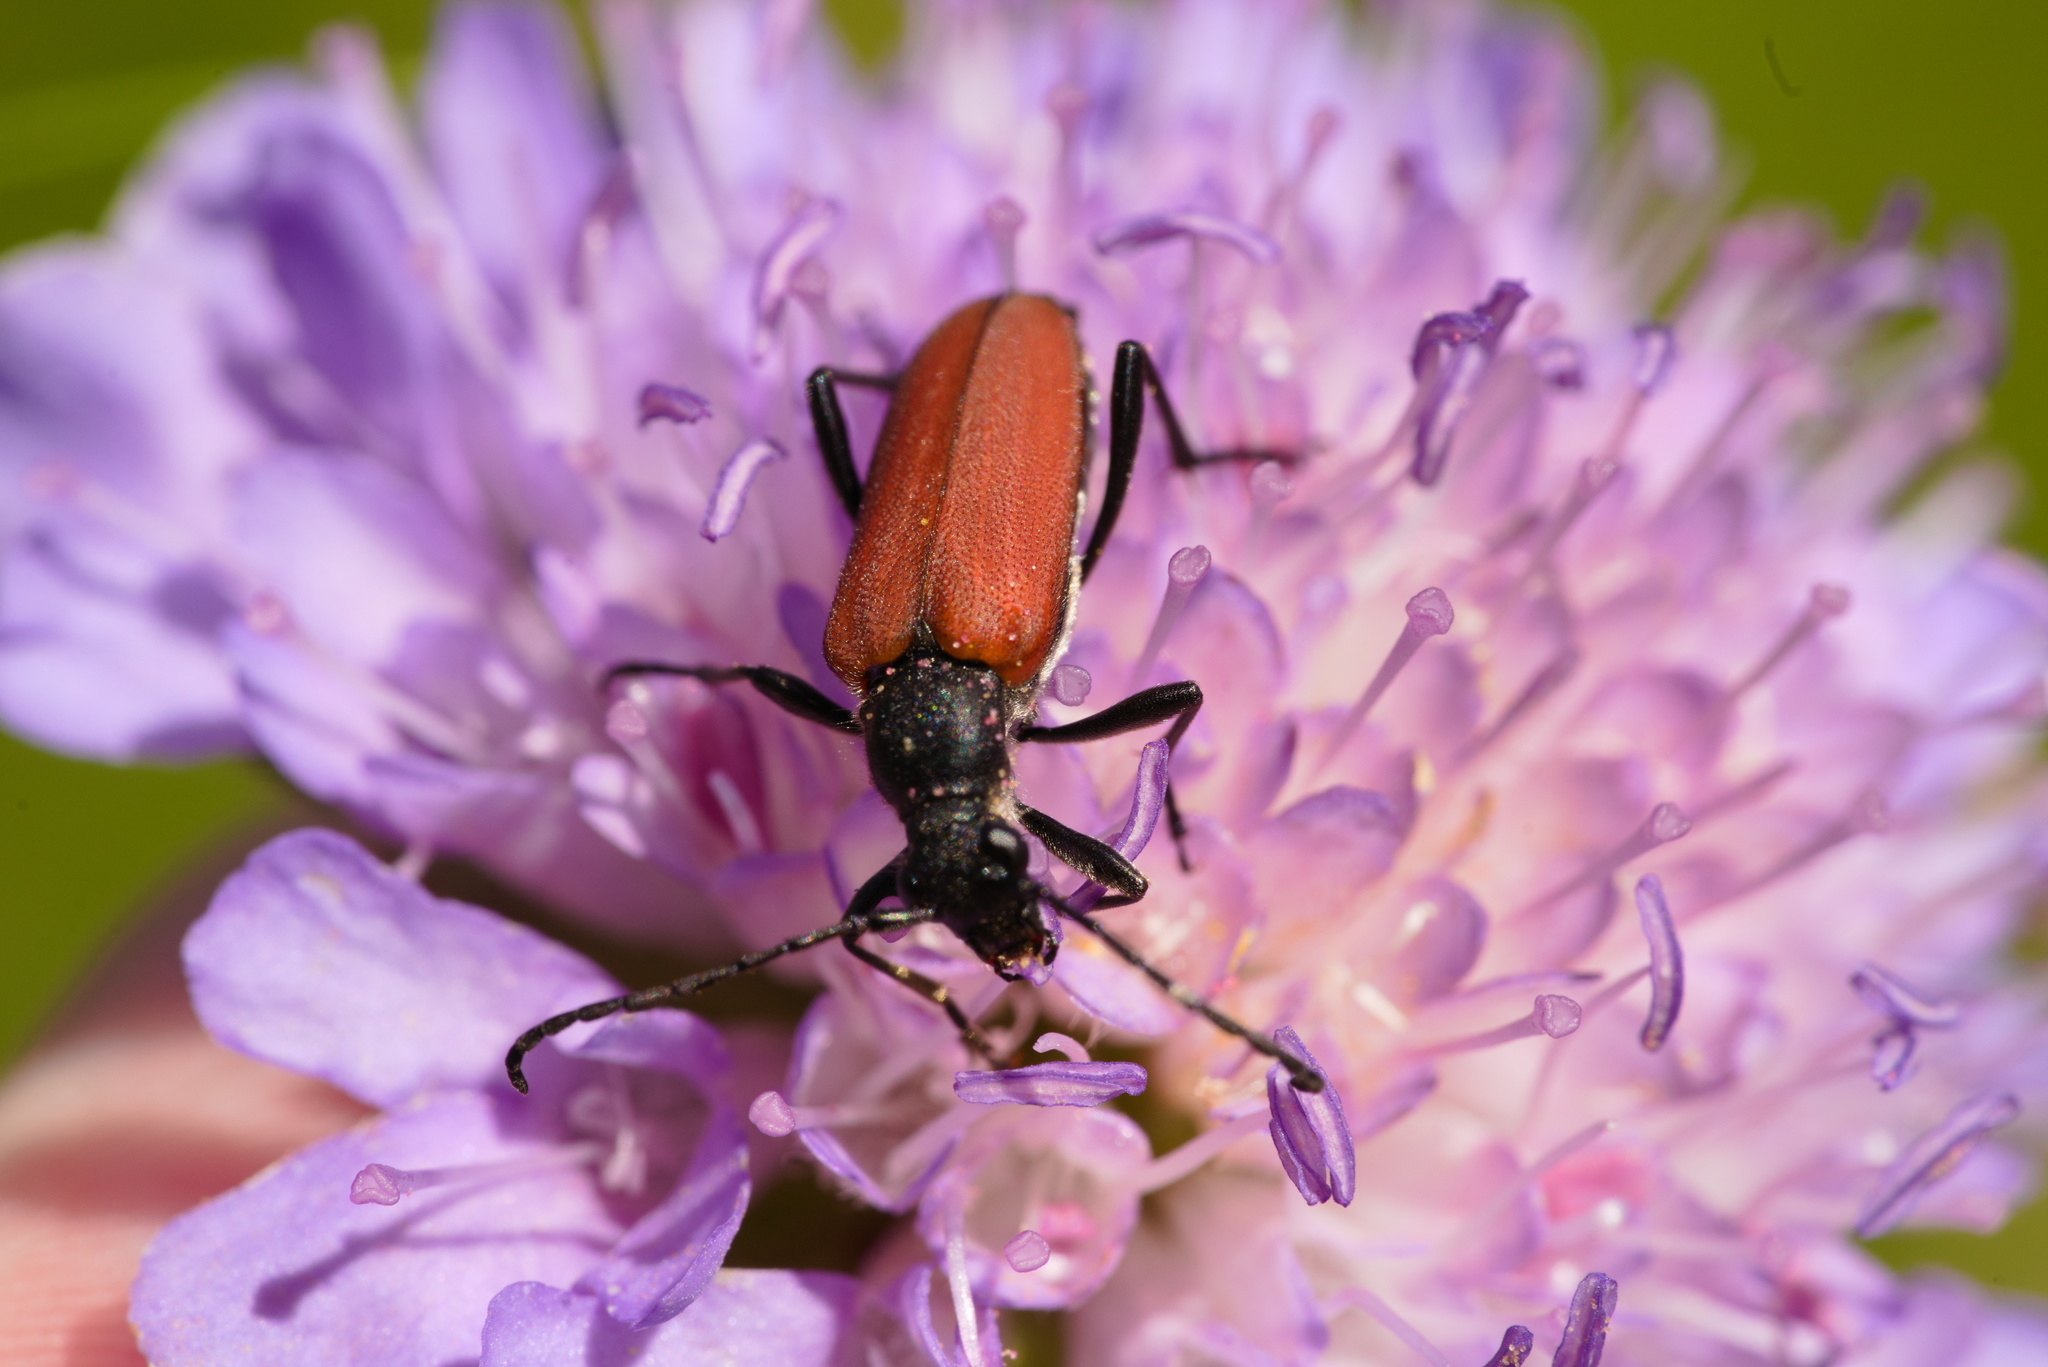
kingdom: Animalia
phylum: Arthropoda
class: Insecta
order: Coleoptera
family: Cerambycidae
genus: Anastrangalia
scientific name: Anastrangalia sanguinolenta
